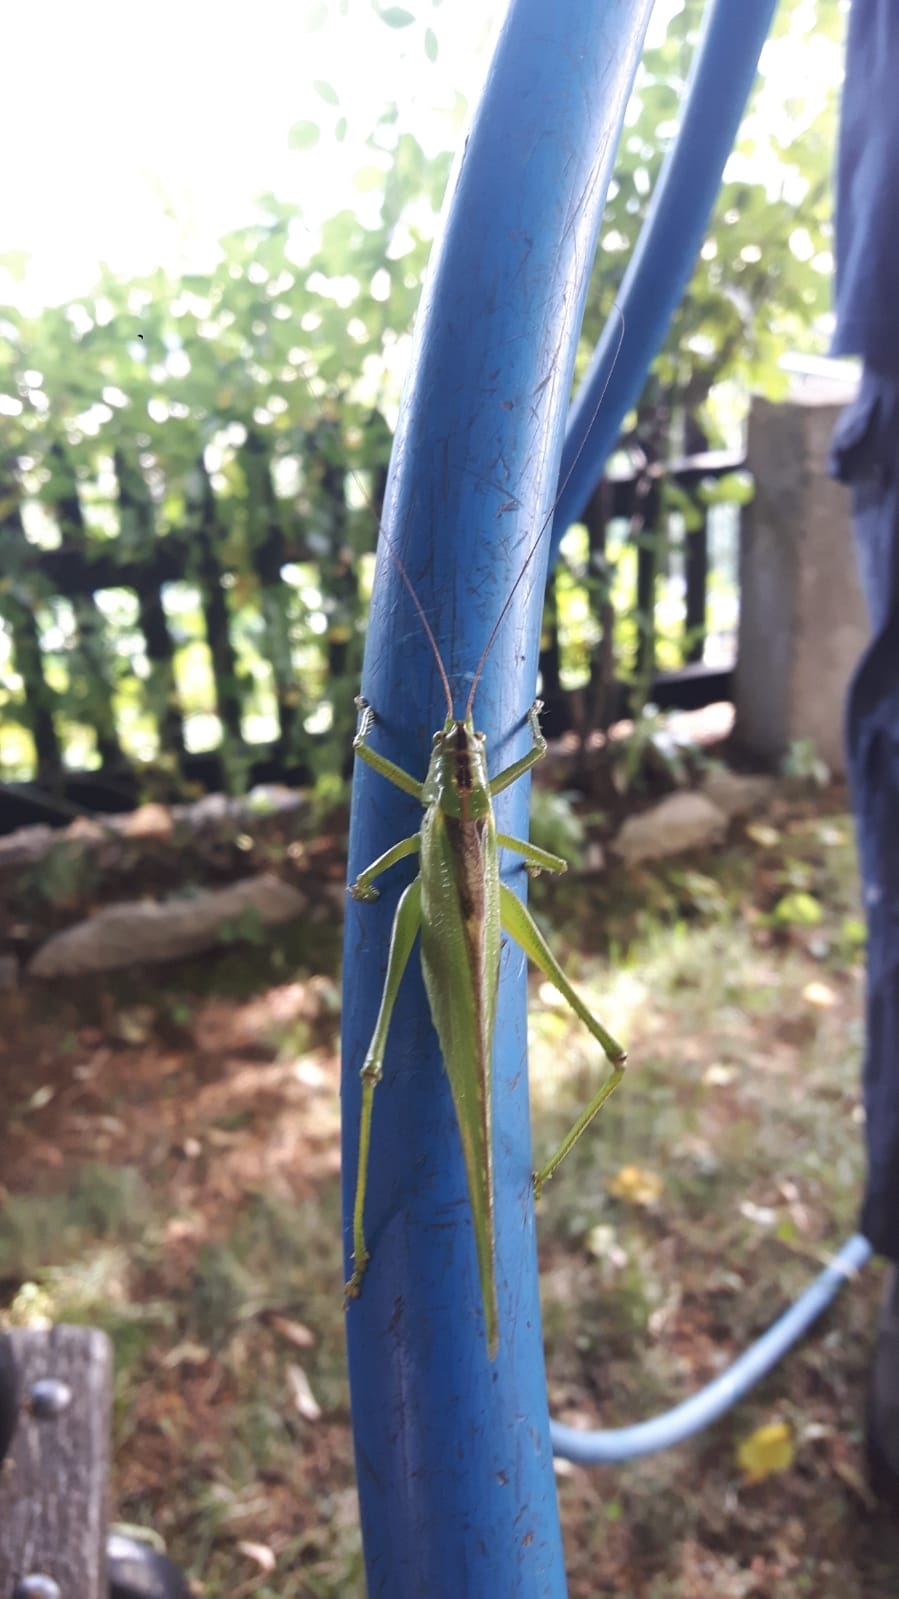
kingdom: Animalia
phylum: Arthropoda
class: Insecta
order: Orthoptera
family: Tettigoniidae
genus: Tettigonia
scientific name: Tettigonia viridissima
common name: Great green bush-cricket
